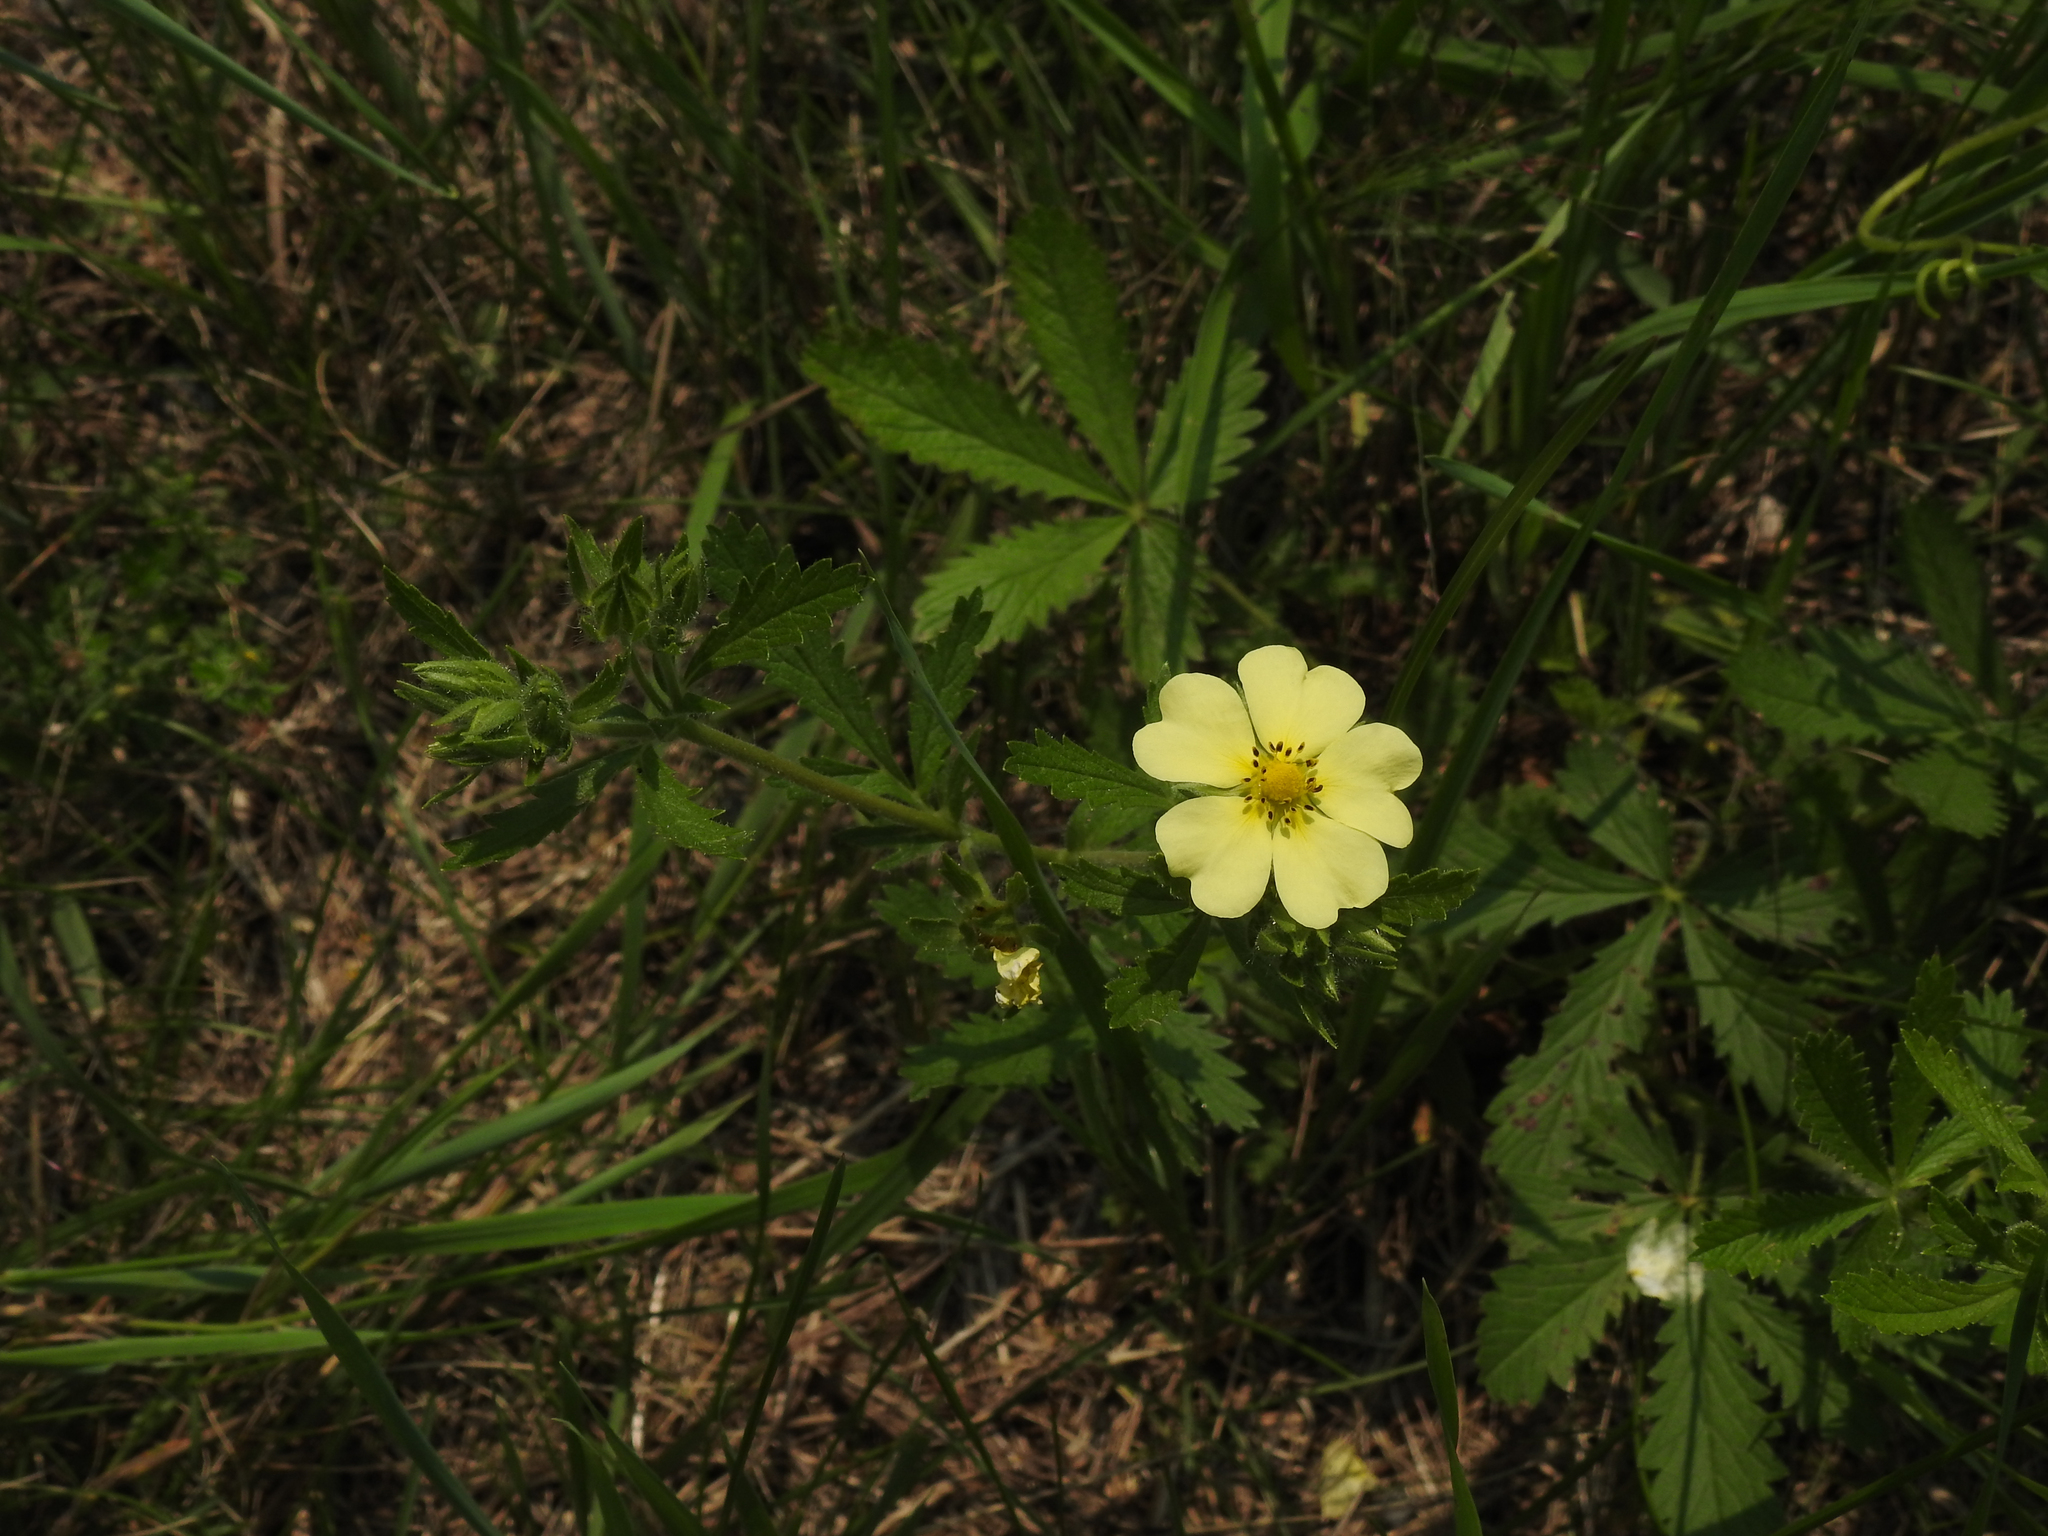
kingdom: Plantae
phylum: Tracheophyta
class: Magnoliopsida
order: Rosales
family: Rosaceae
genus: Potentilla
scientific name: Potentilla recta
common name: Sulphur cinquefoil
